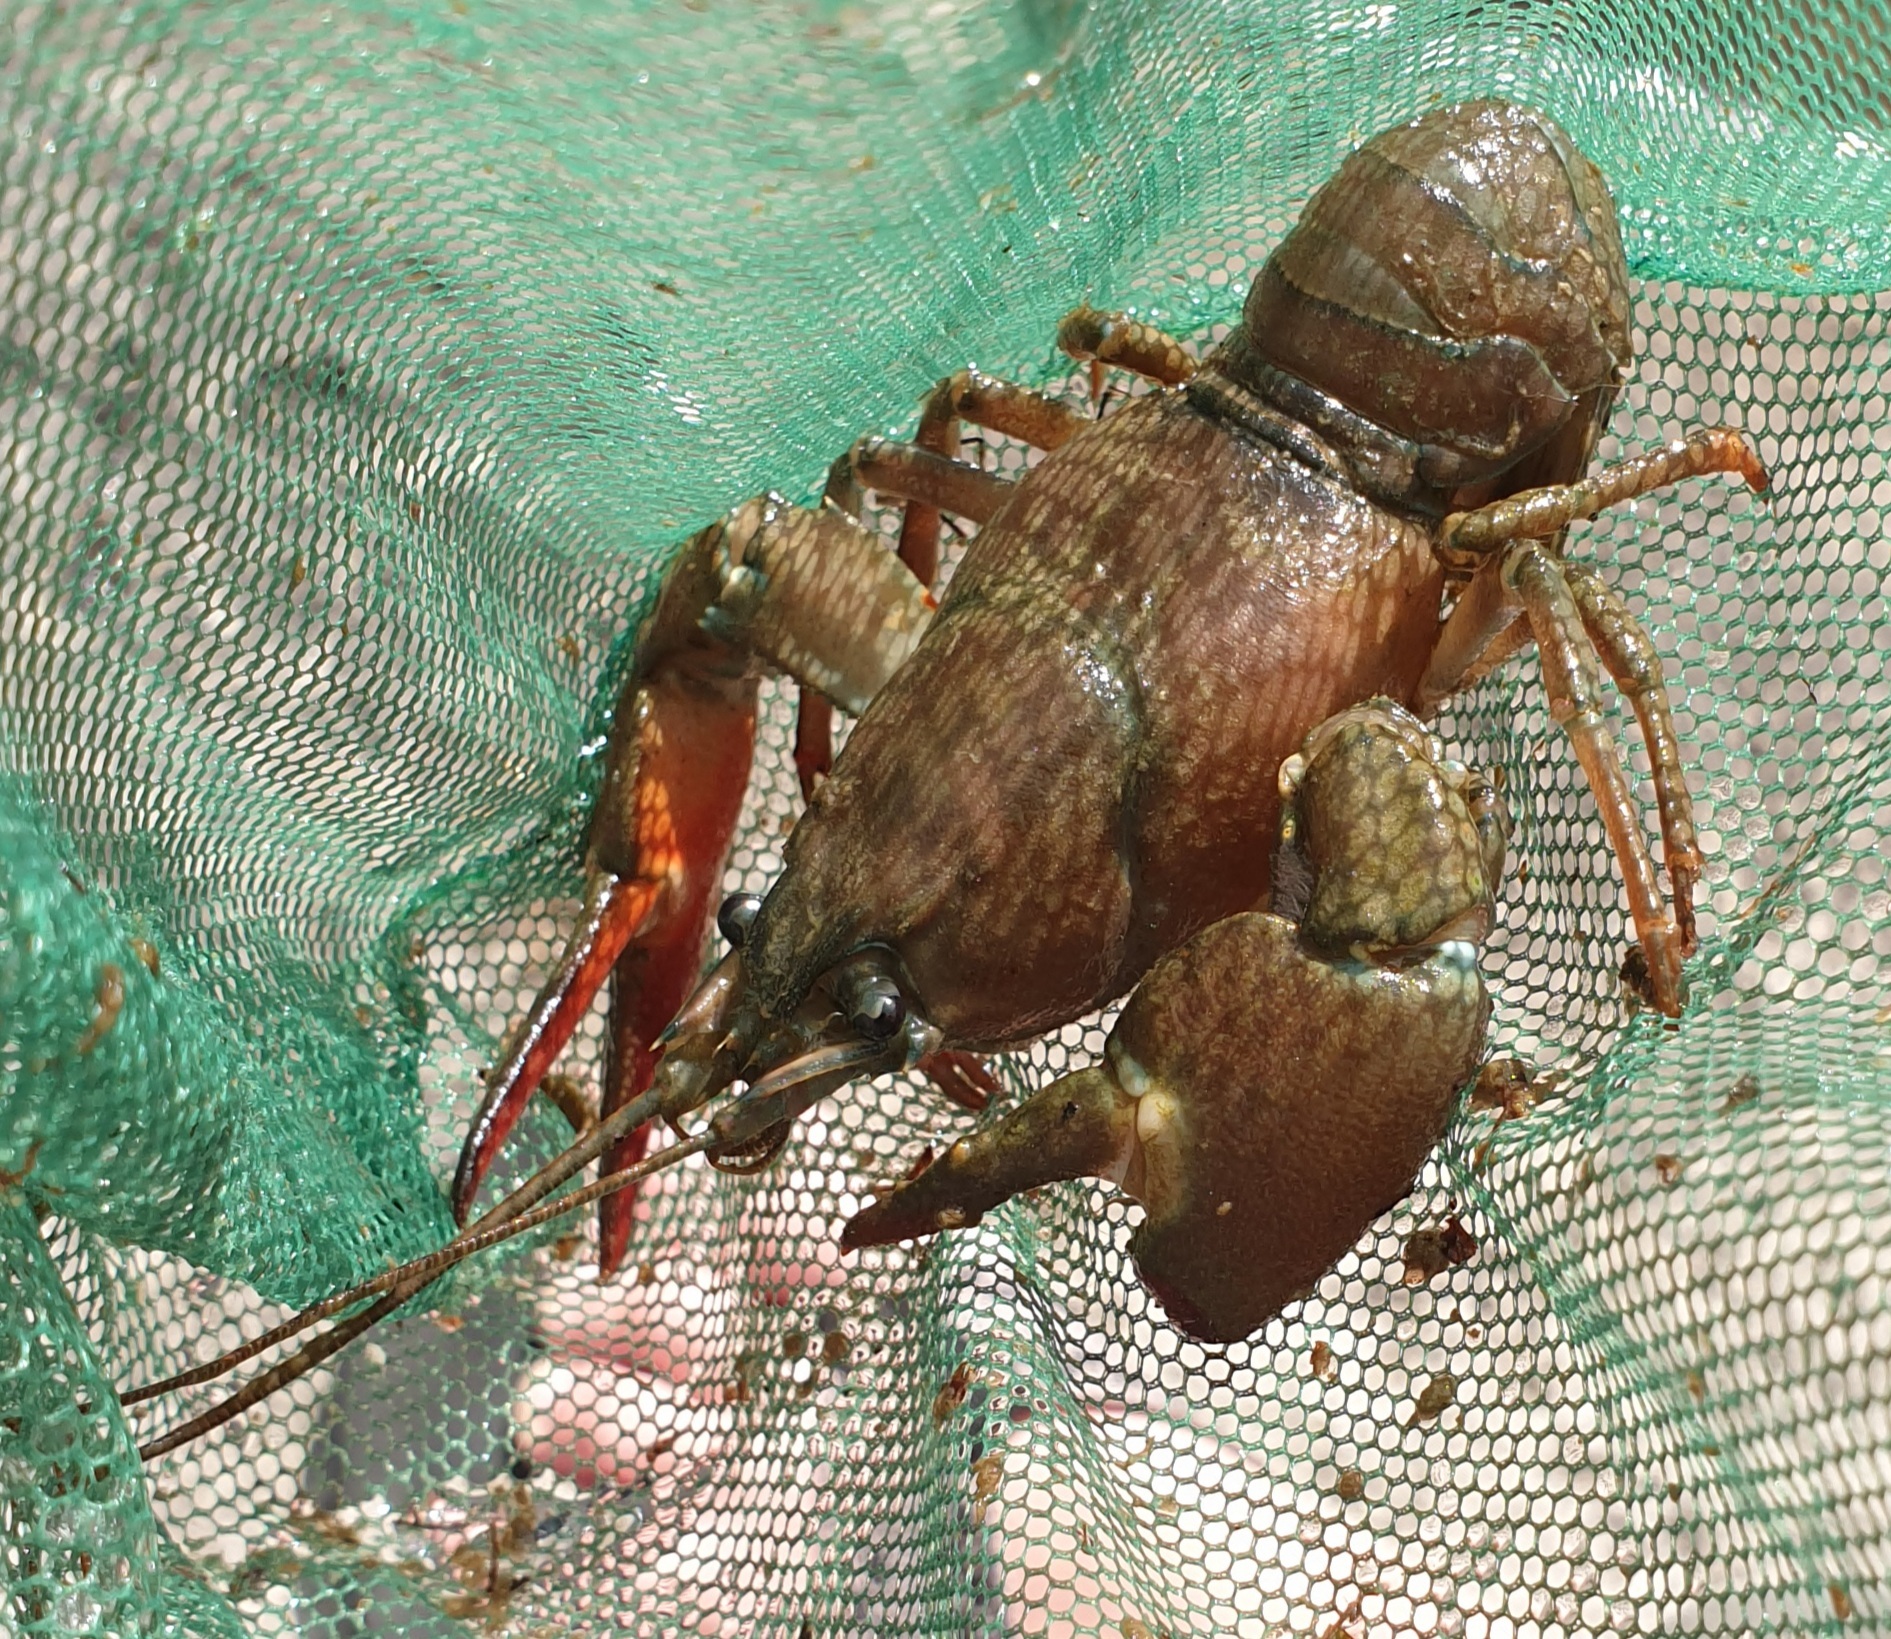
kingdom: Animalia
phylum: Arthropoda
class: Malacostraca
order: Decapoda
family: Astacidae
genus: Pacifastacus
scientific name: Pacifastacus leniusculus
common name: Signal crayfish
